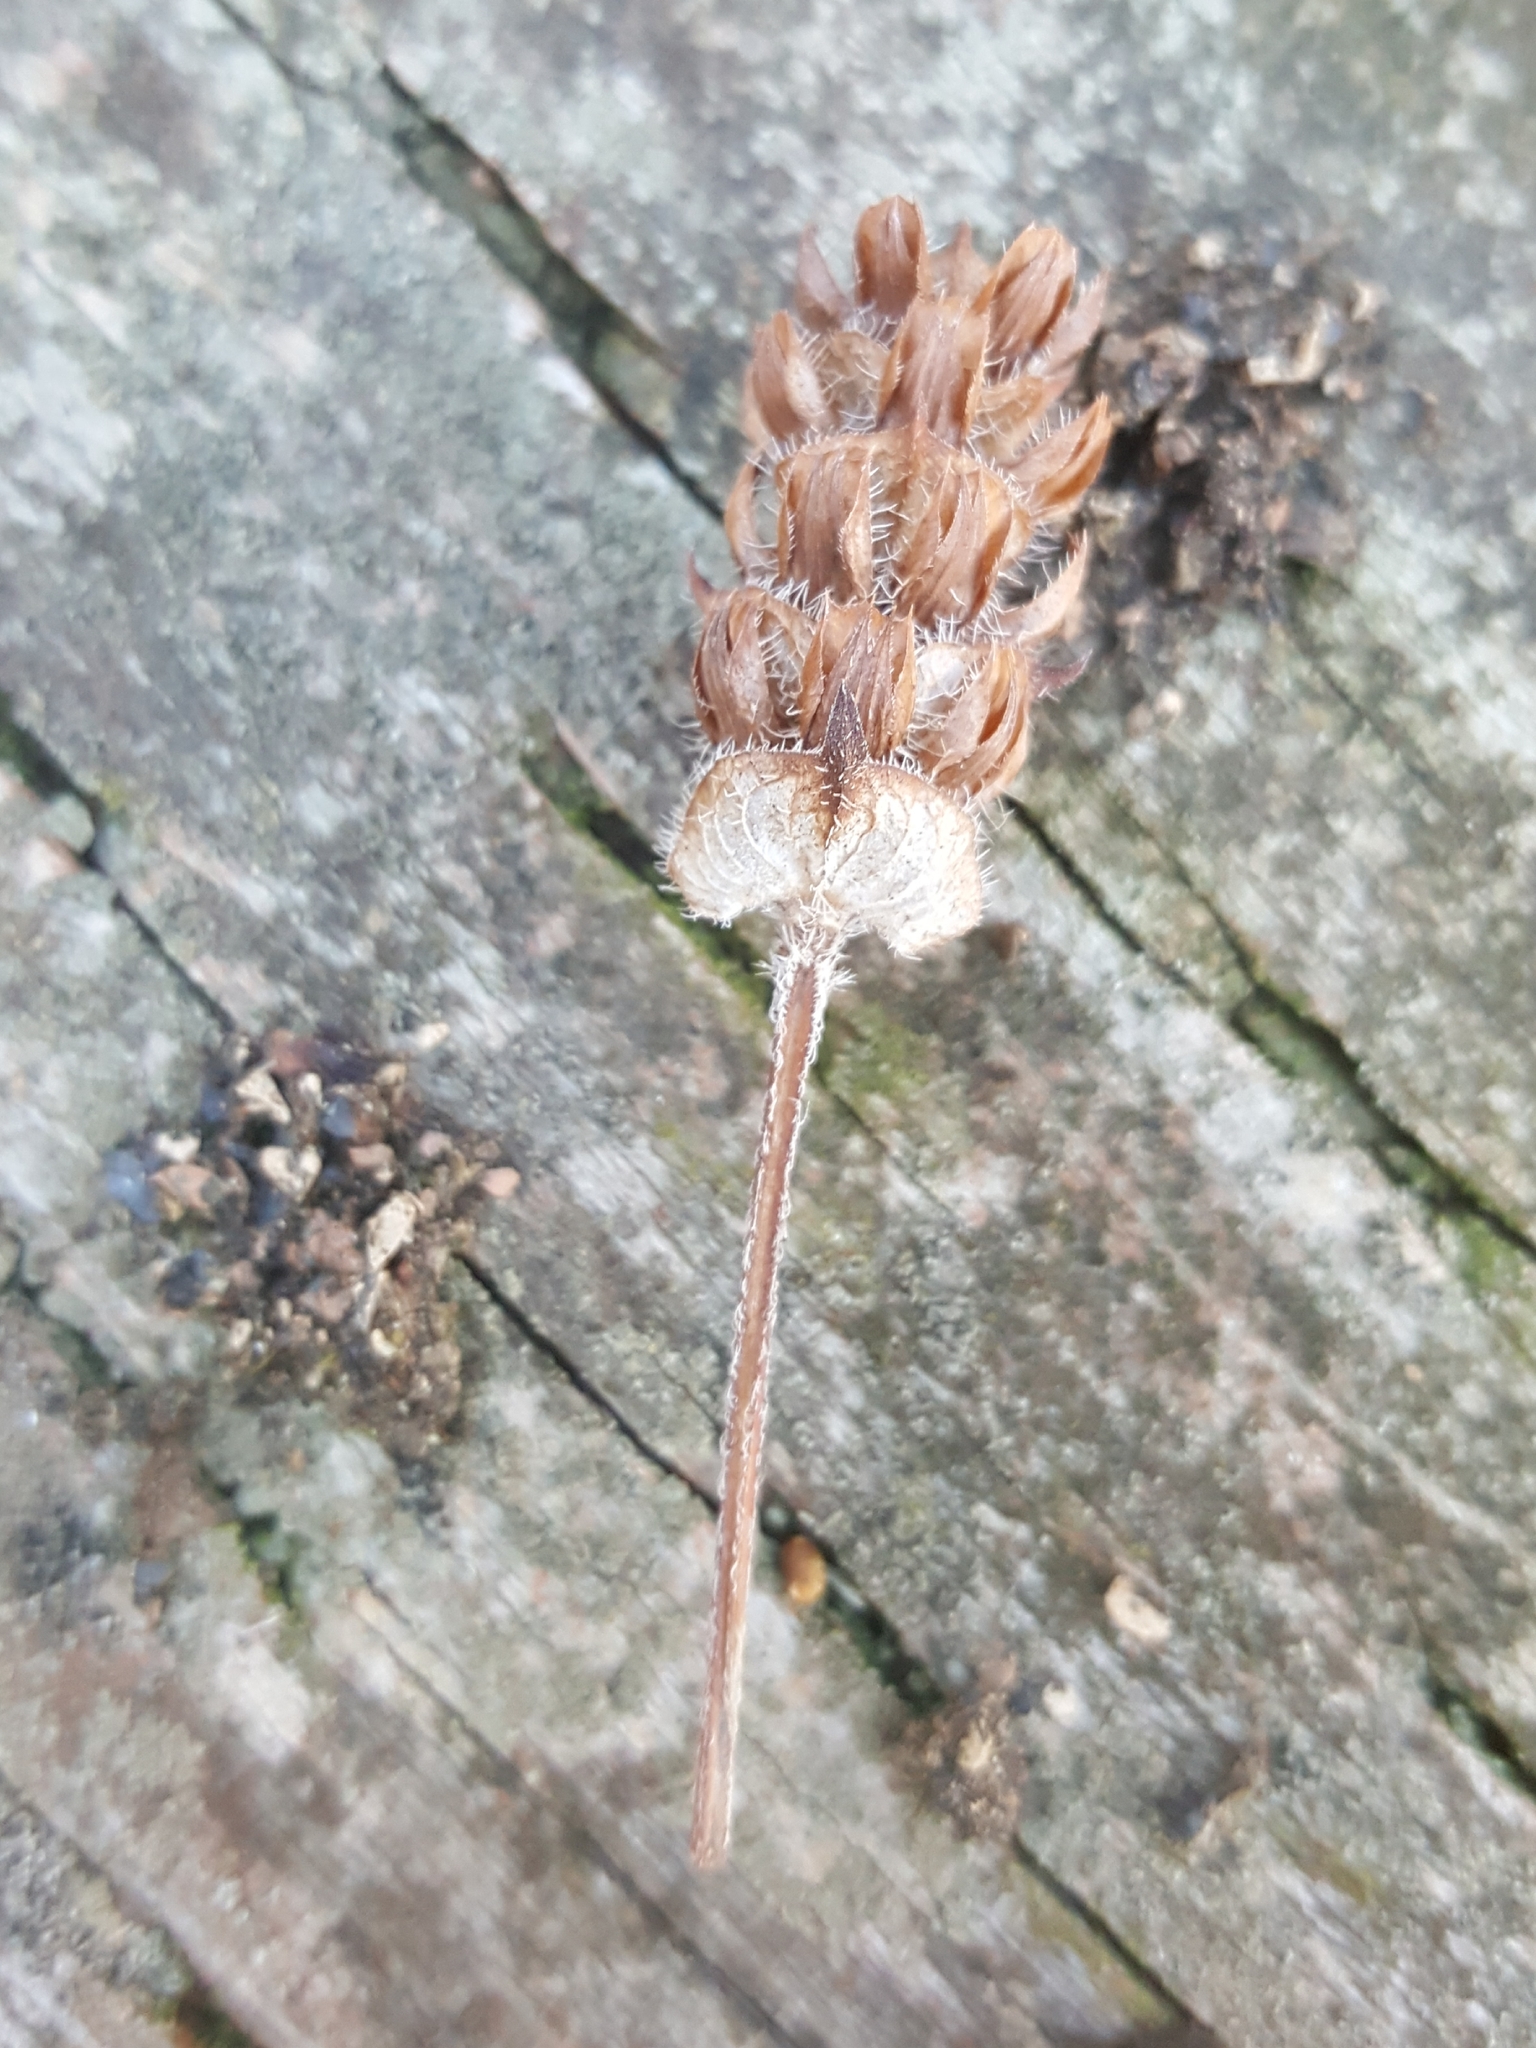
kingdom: Plantae
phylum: Tracheophyta
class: Magnoliopsida
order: Lamiales
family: Lamiaceae
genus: Prunella
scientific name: Prunella vulgaris
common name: Heal-all
